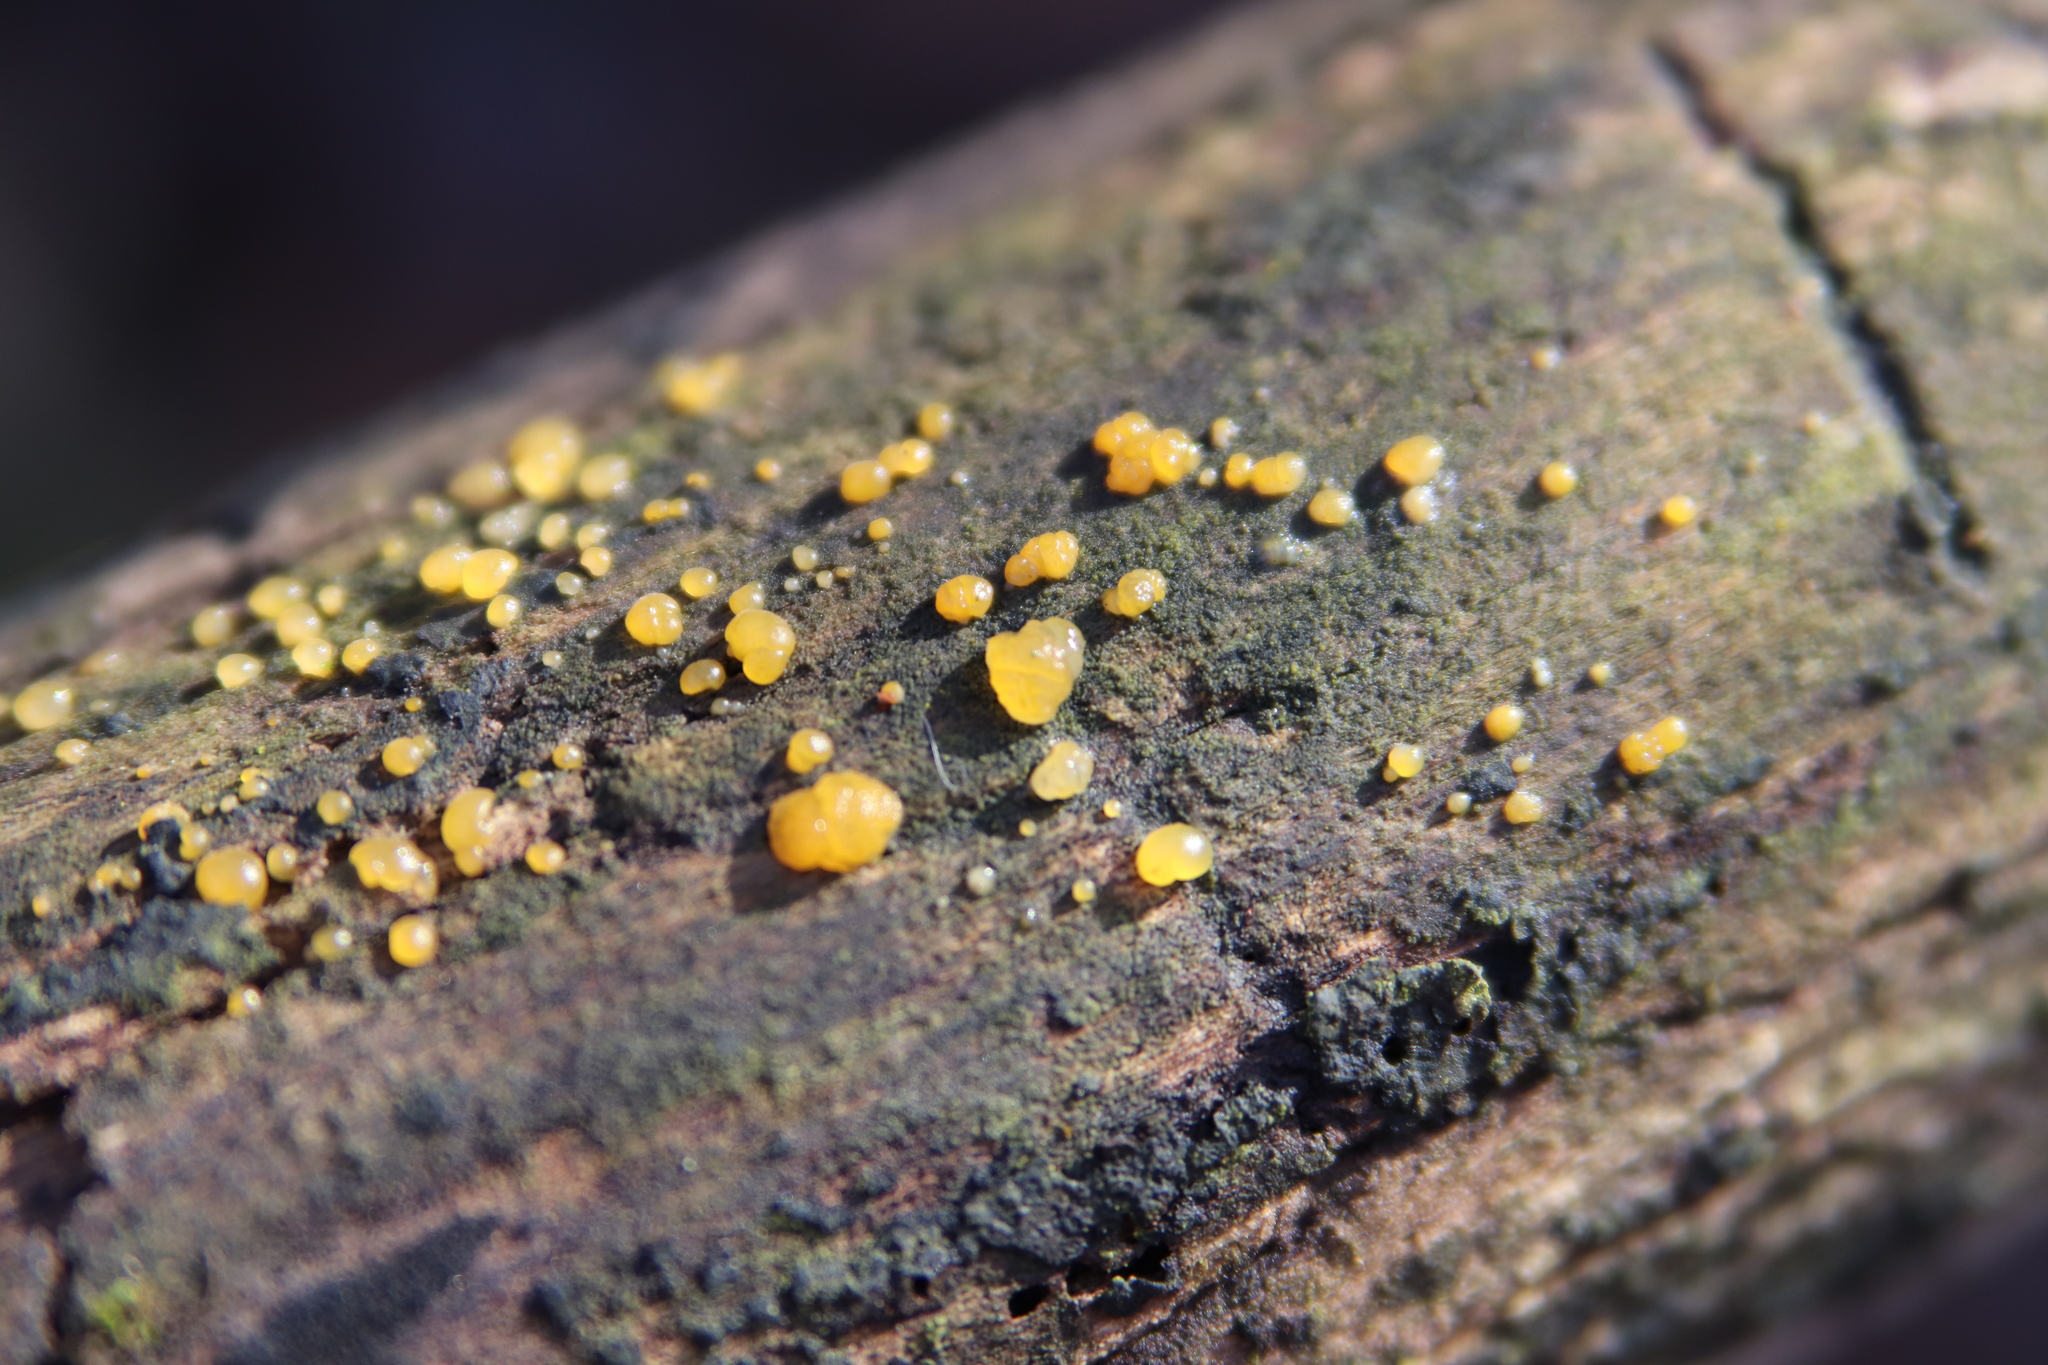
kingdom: Fungi
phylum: Basidiomycota
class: Dacrymycetes
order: Dacrymycetales
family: Dacrymycetaceae
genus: Dacrymyces
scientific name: Dacrymyces stillatus
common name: Common jelly spot
